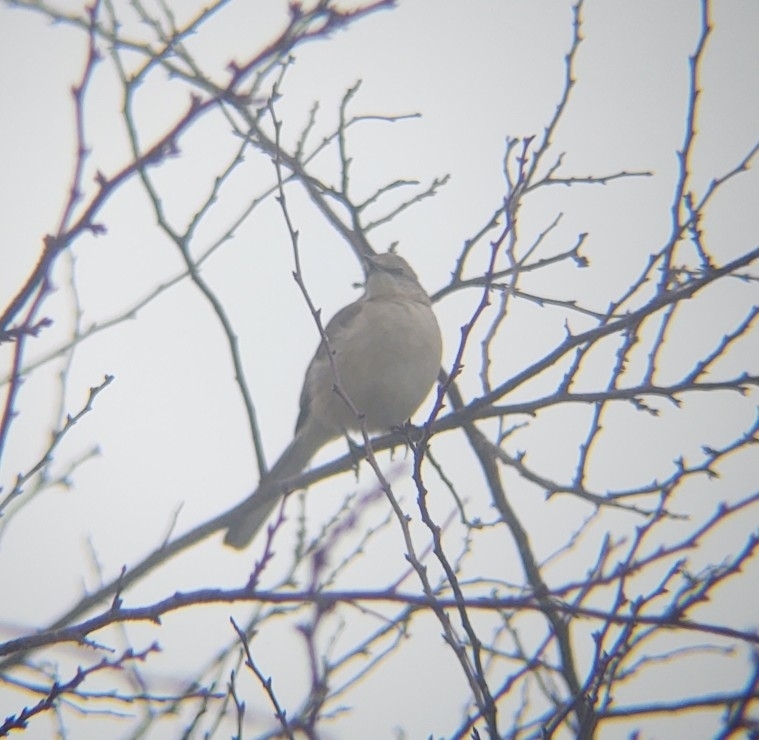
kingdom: Animalia
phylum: Chordata
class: Aves
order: Passeriformes
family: Mimidae
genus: Mimus
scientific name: Mimus polyglottos
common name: Northern mockingbird
